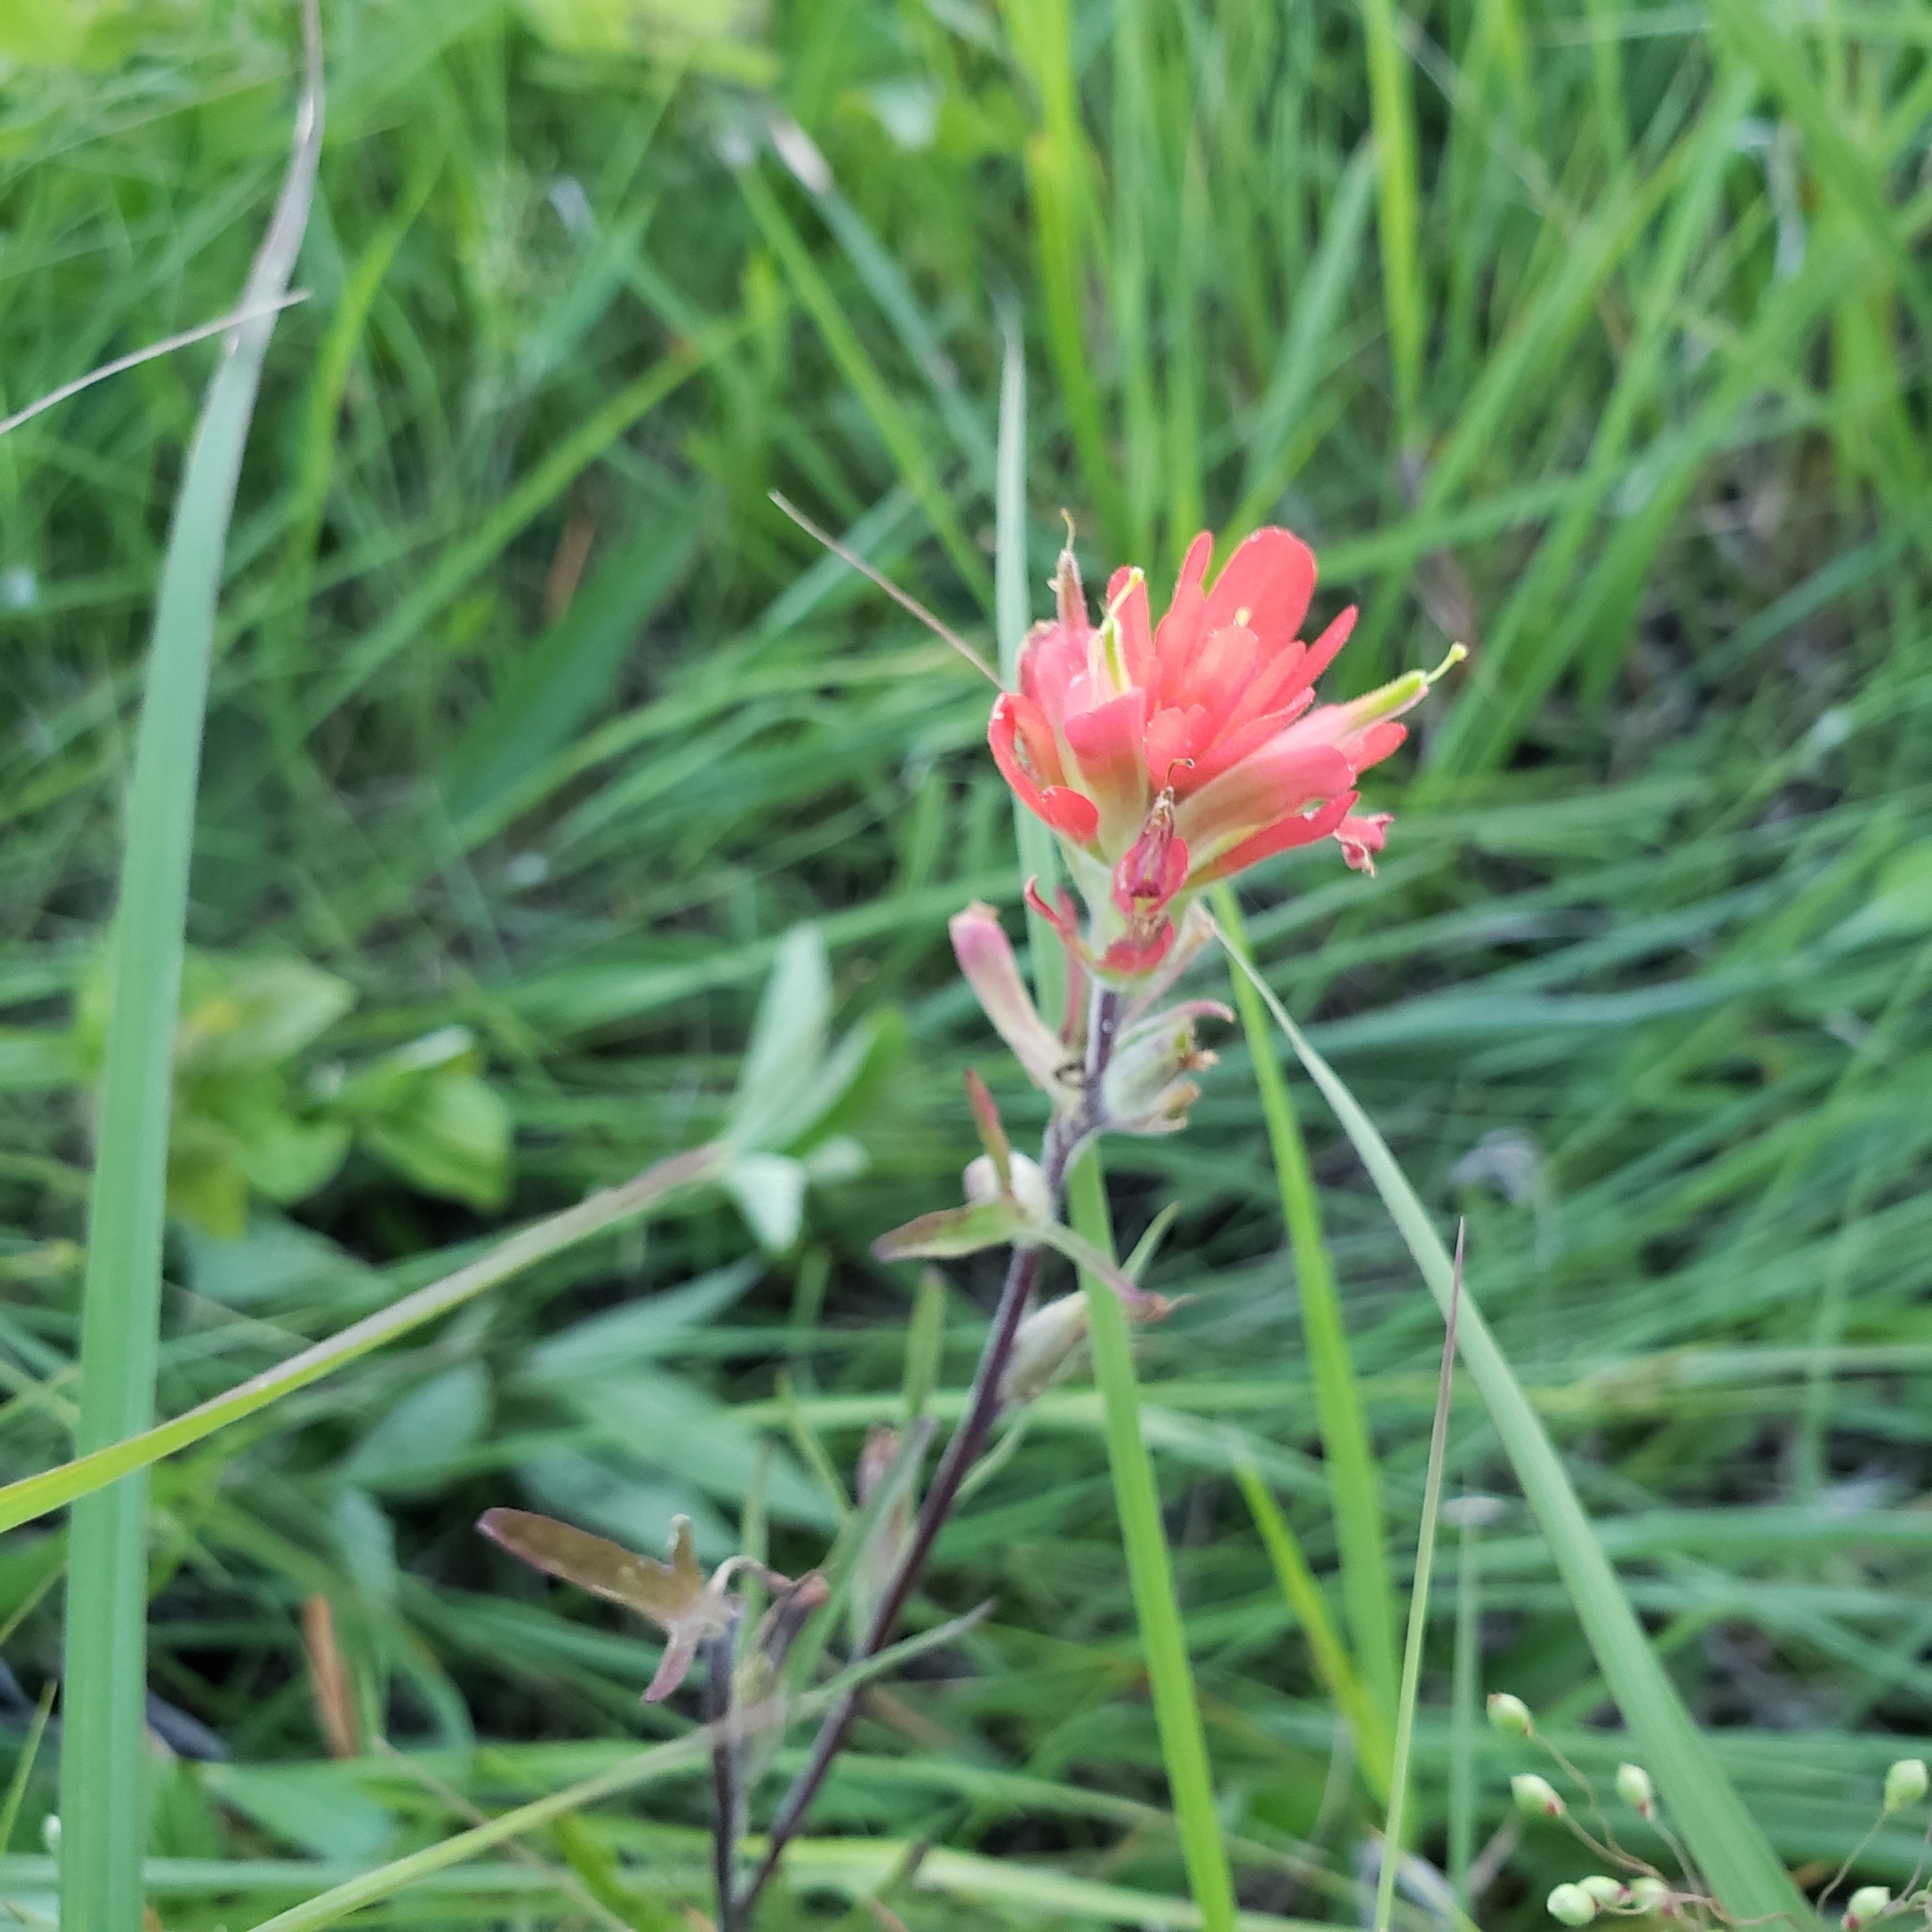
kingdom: Plantae
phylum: Tracheophyta
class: Magnoliopsida
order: Lamiales
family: Orobanchaceae
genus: Castilleja
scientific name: Castilleja coccinea
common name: Scarlet paintbrush
